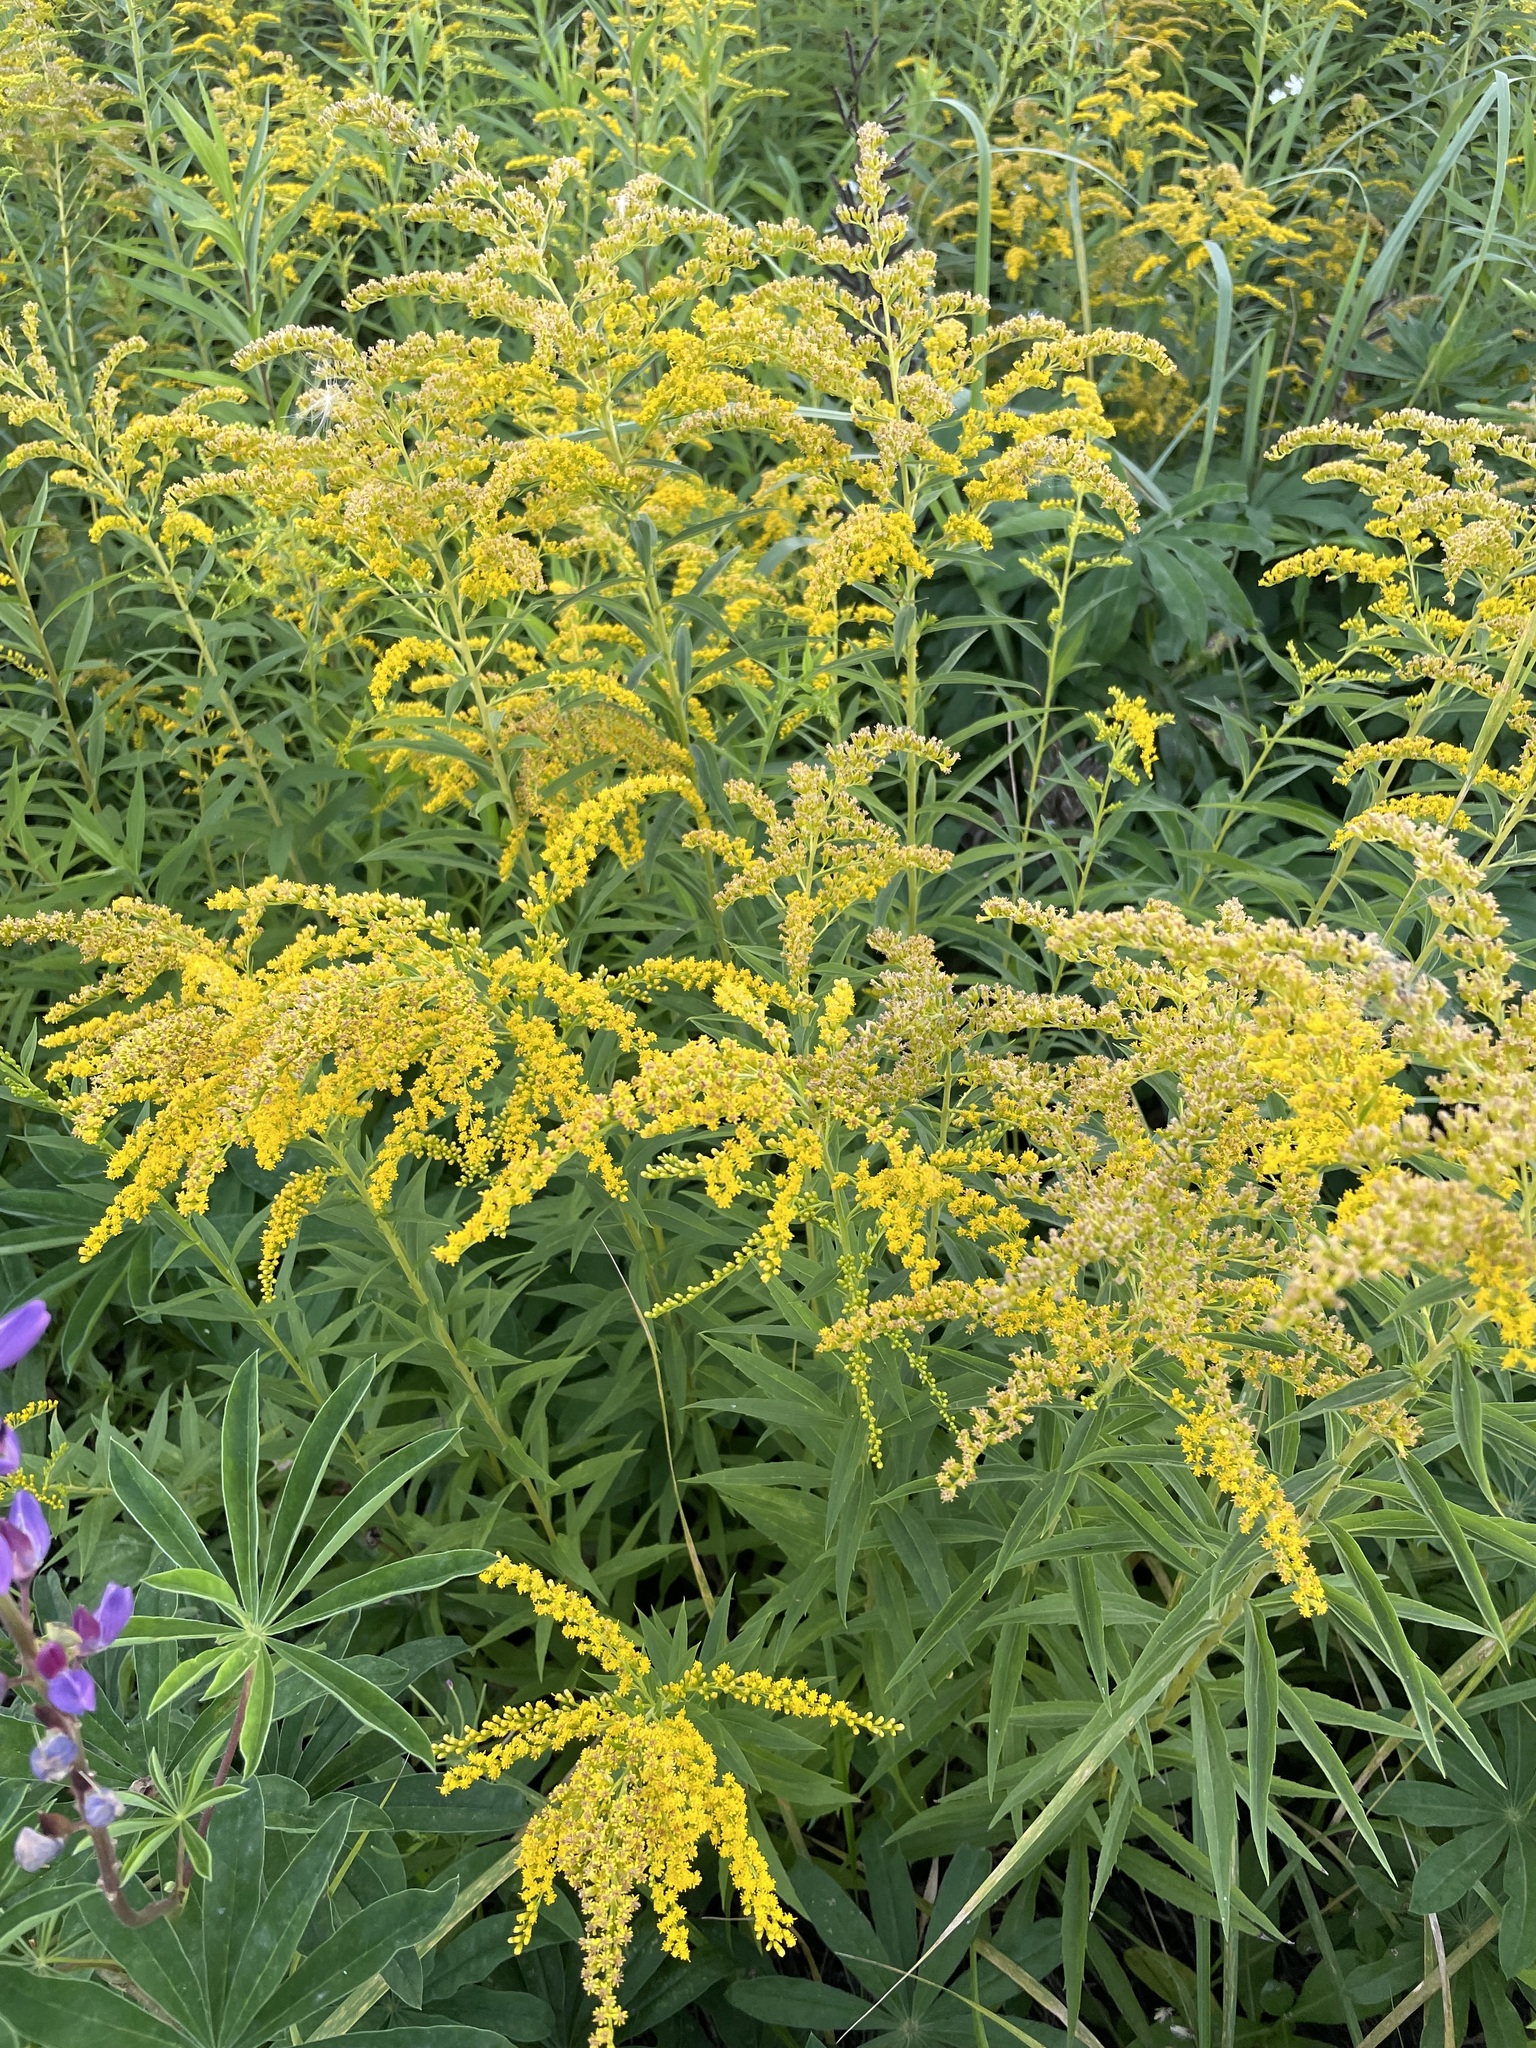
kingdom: Plantae
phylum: Tracheophyta
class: Magnoliopsida
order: Asterales
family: Asteraceae
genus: Solidago
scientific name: Solidago canadensis
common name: Canada goldenrod
